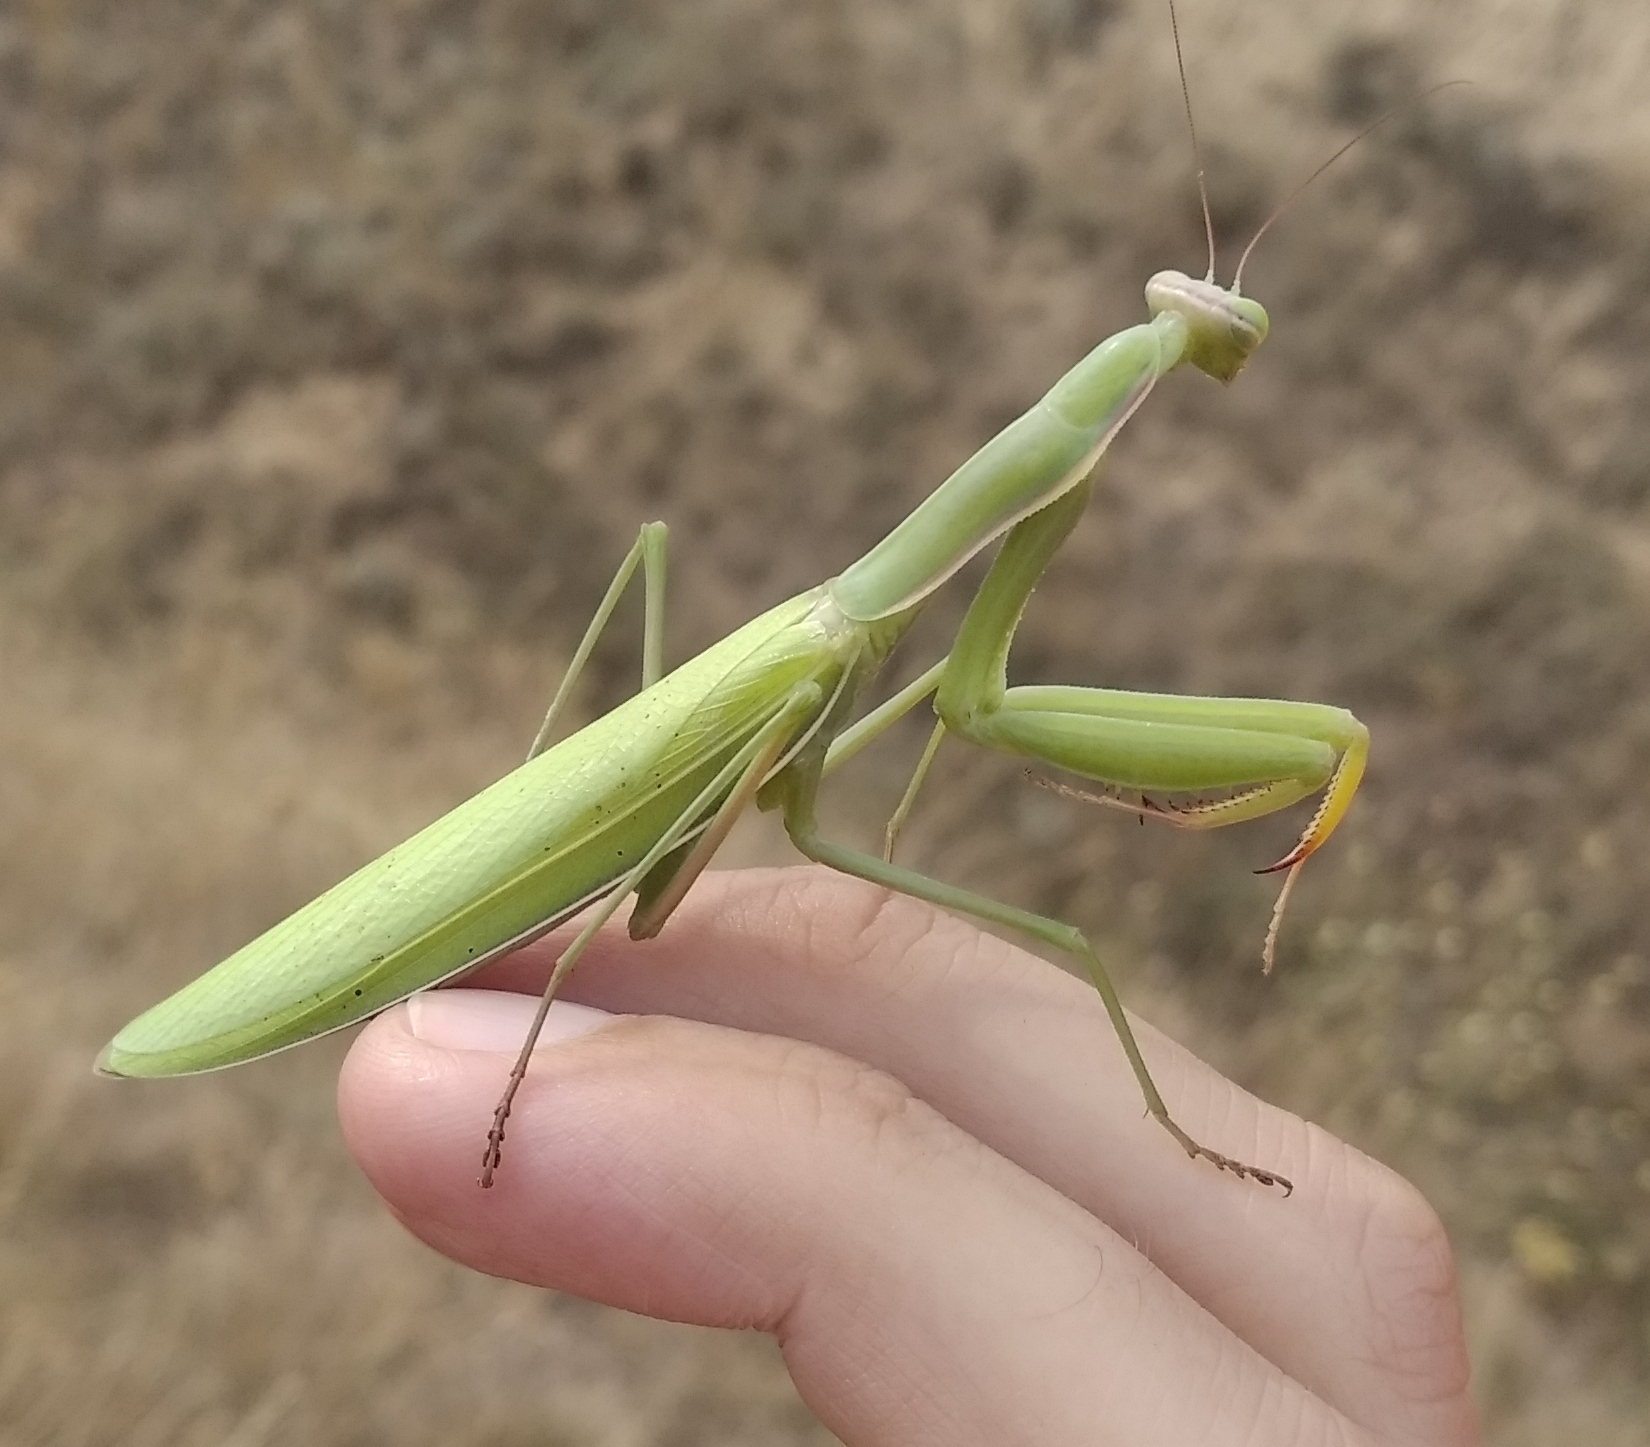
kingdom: Animalia
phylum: Arthropoda
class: Insecta
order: Mantodea
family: Mantidae
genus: Mantis
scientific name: Mantis religiosa
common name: Praying mantis
